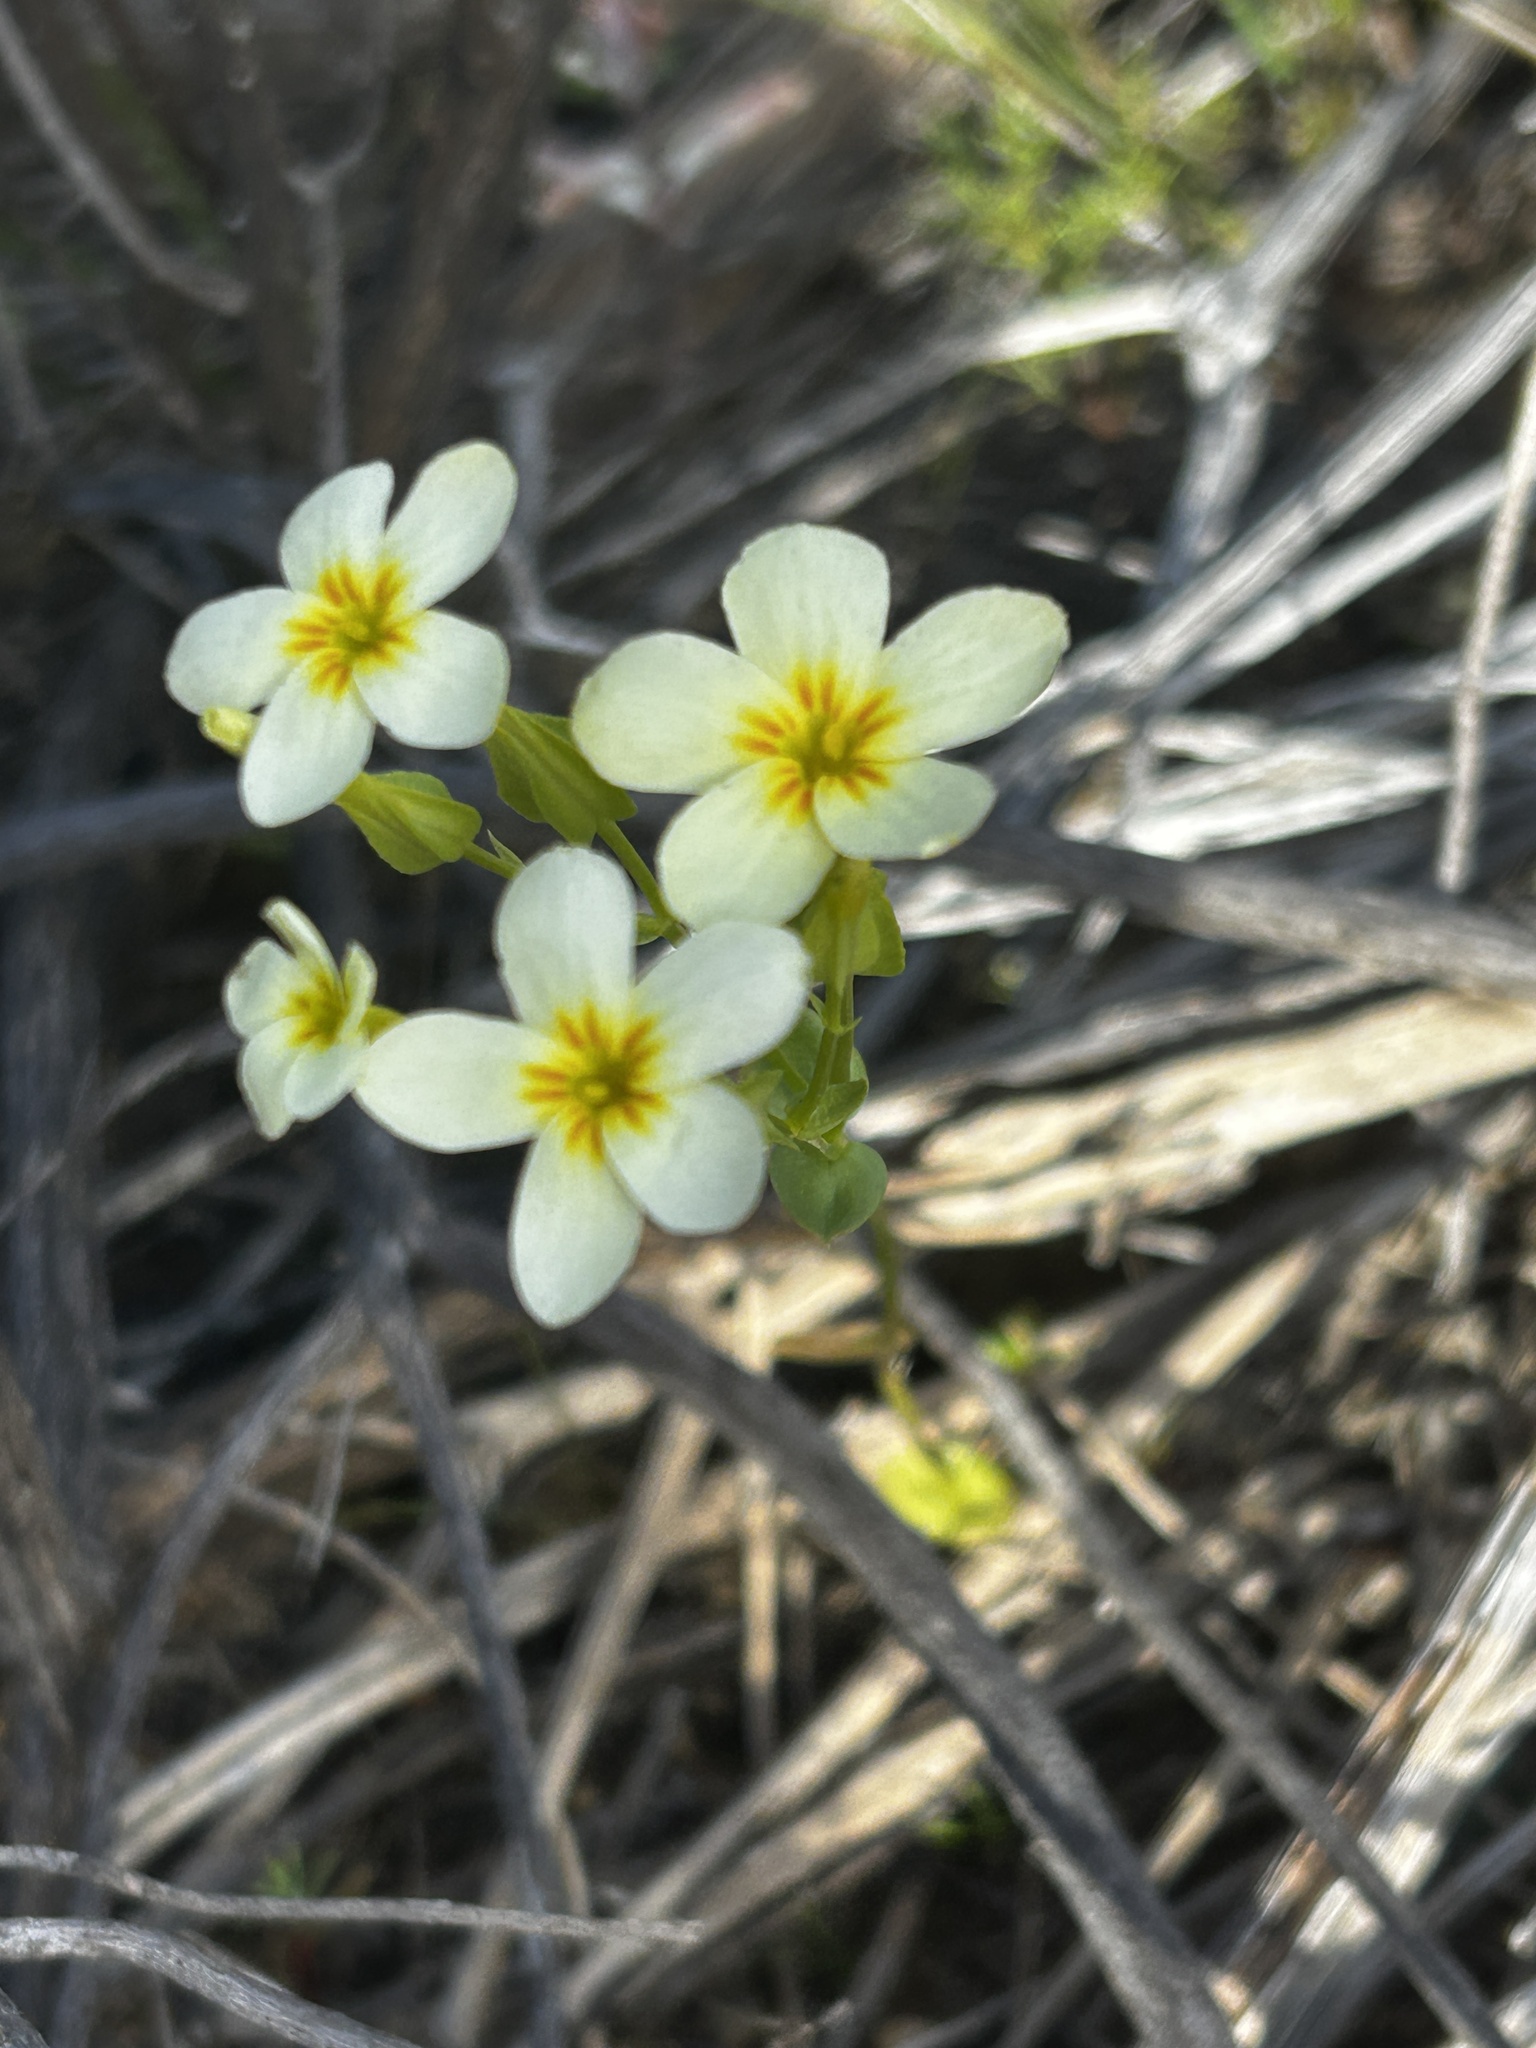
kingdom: Plantae
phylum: Tracheophyta
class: Magnoliopsida
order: Gentianales
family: Gentianaceae
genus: Sebaea
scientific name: Sebaea exacoides
